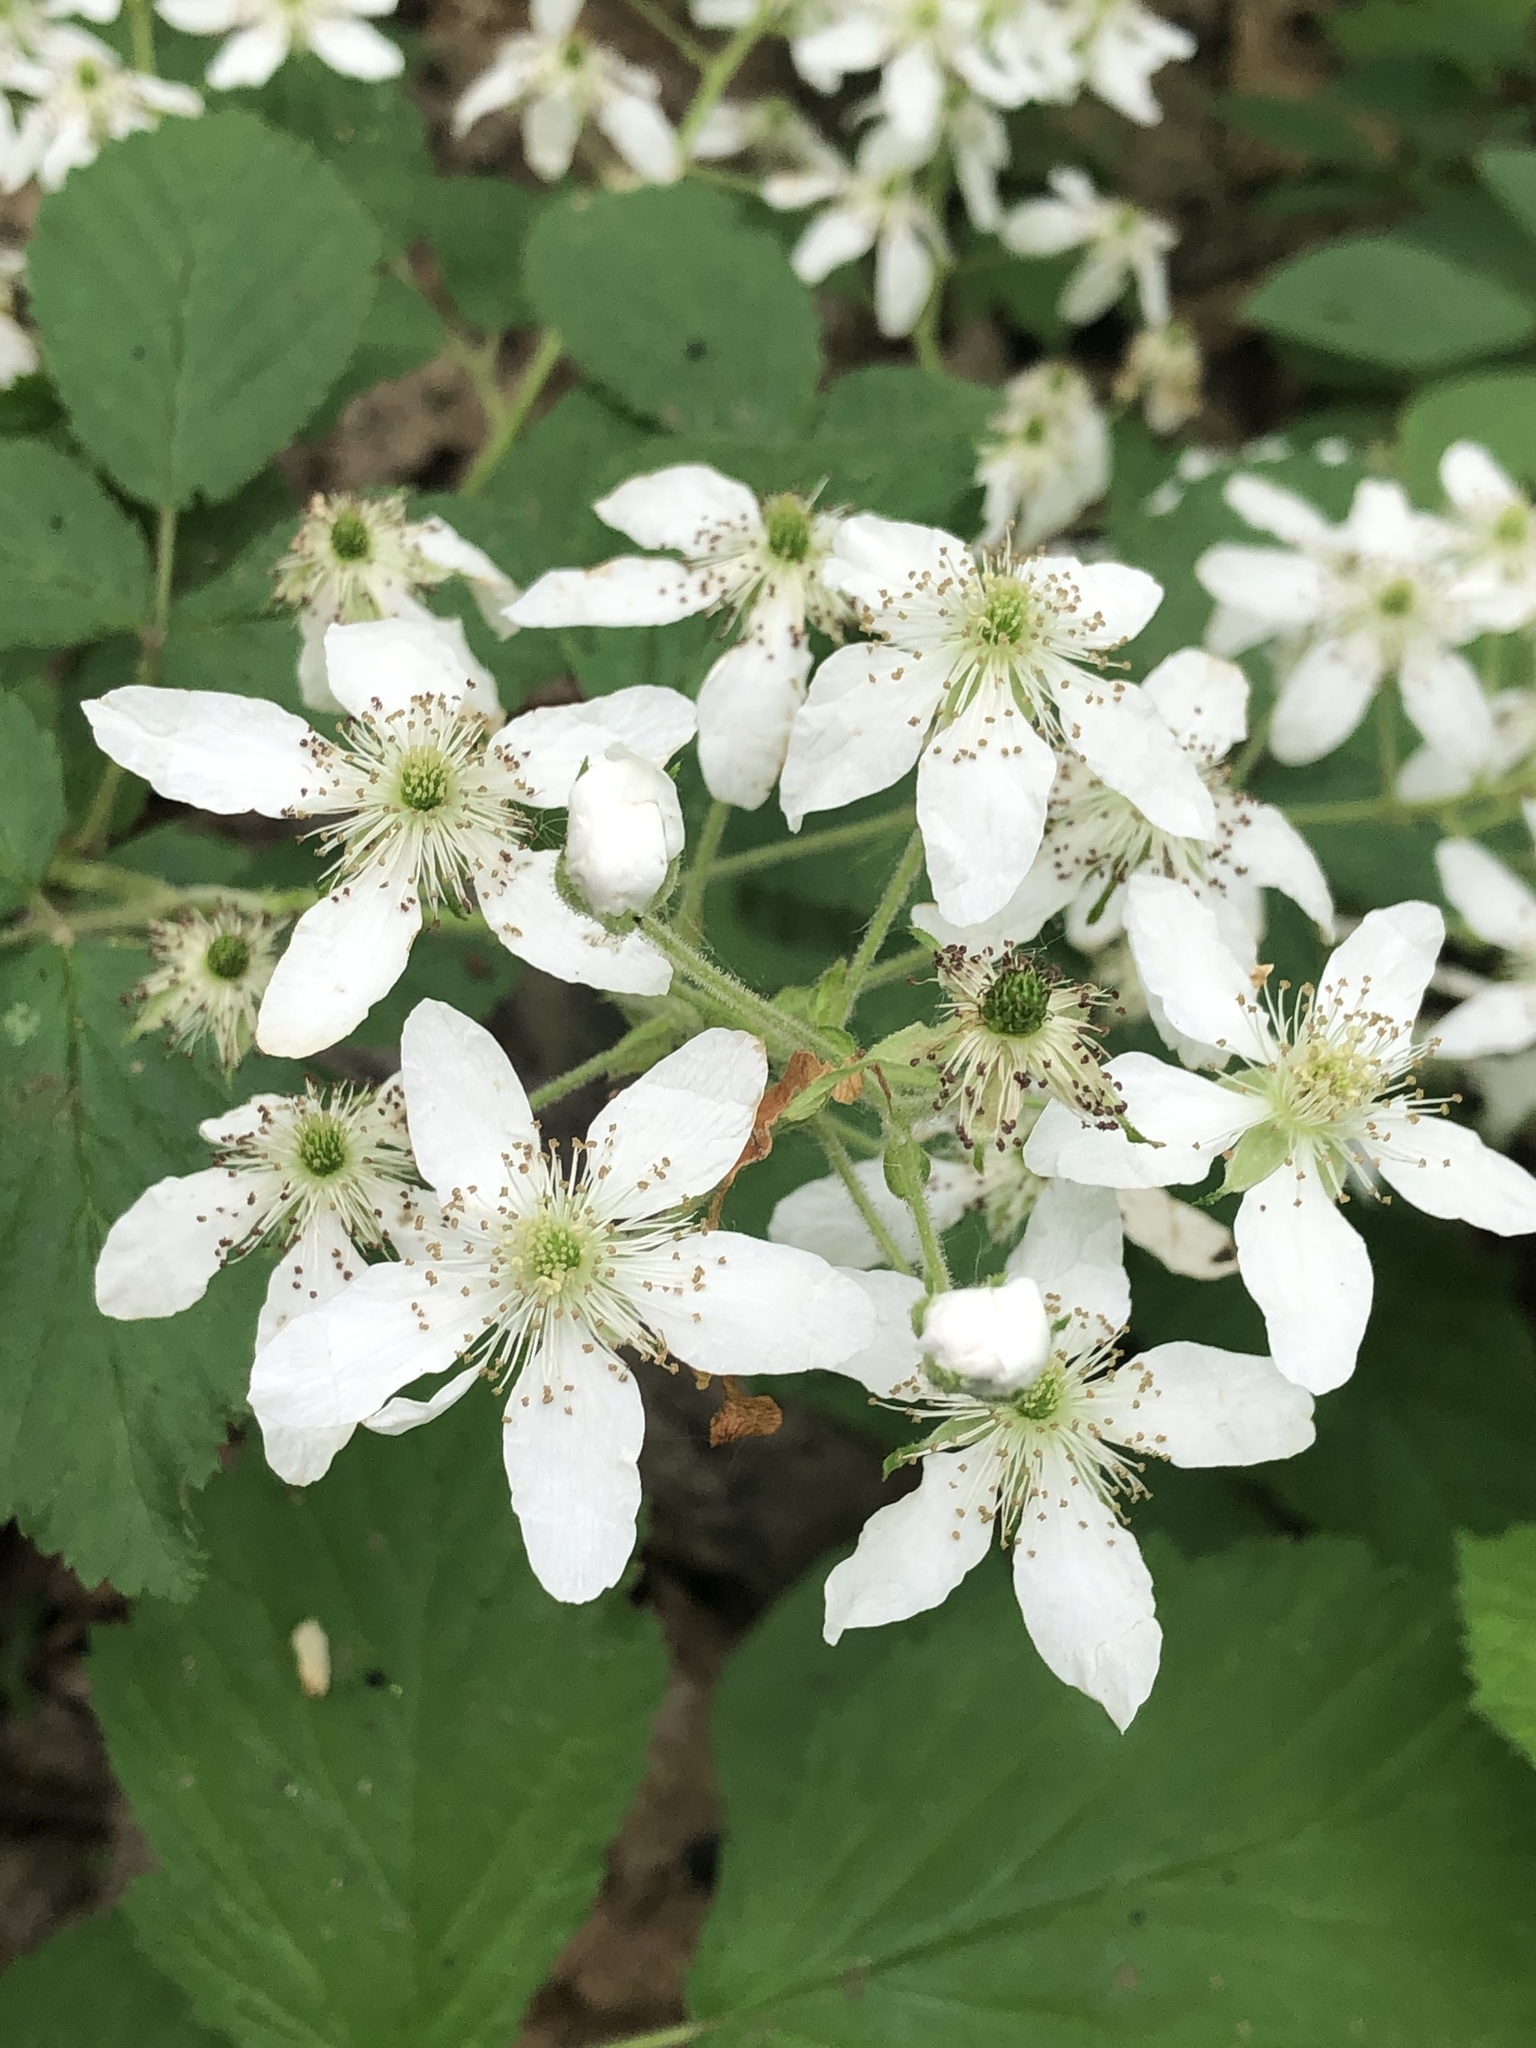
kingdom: Plantae
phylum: Tracheophyta
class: Magnoliopsida
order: Rosales
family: Rosaceae
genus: Rubus
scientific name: Rubus allegheniensis
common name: Allegheny blackberry
